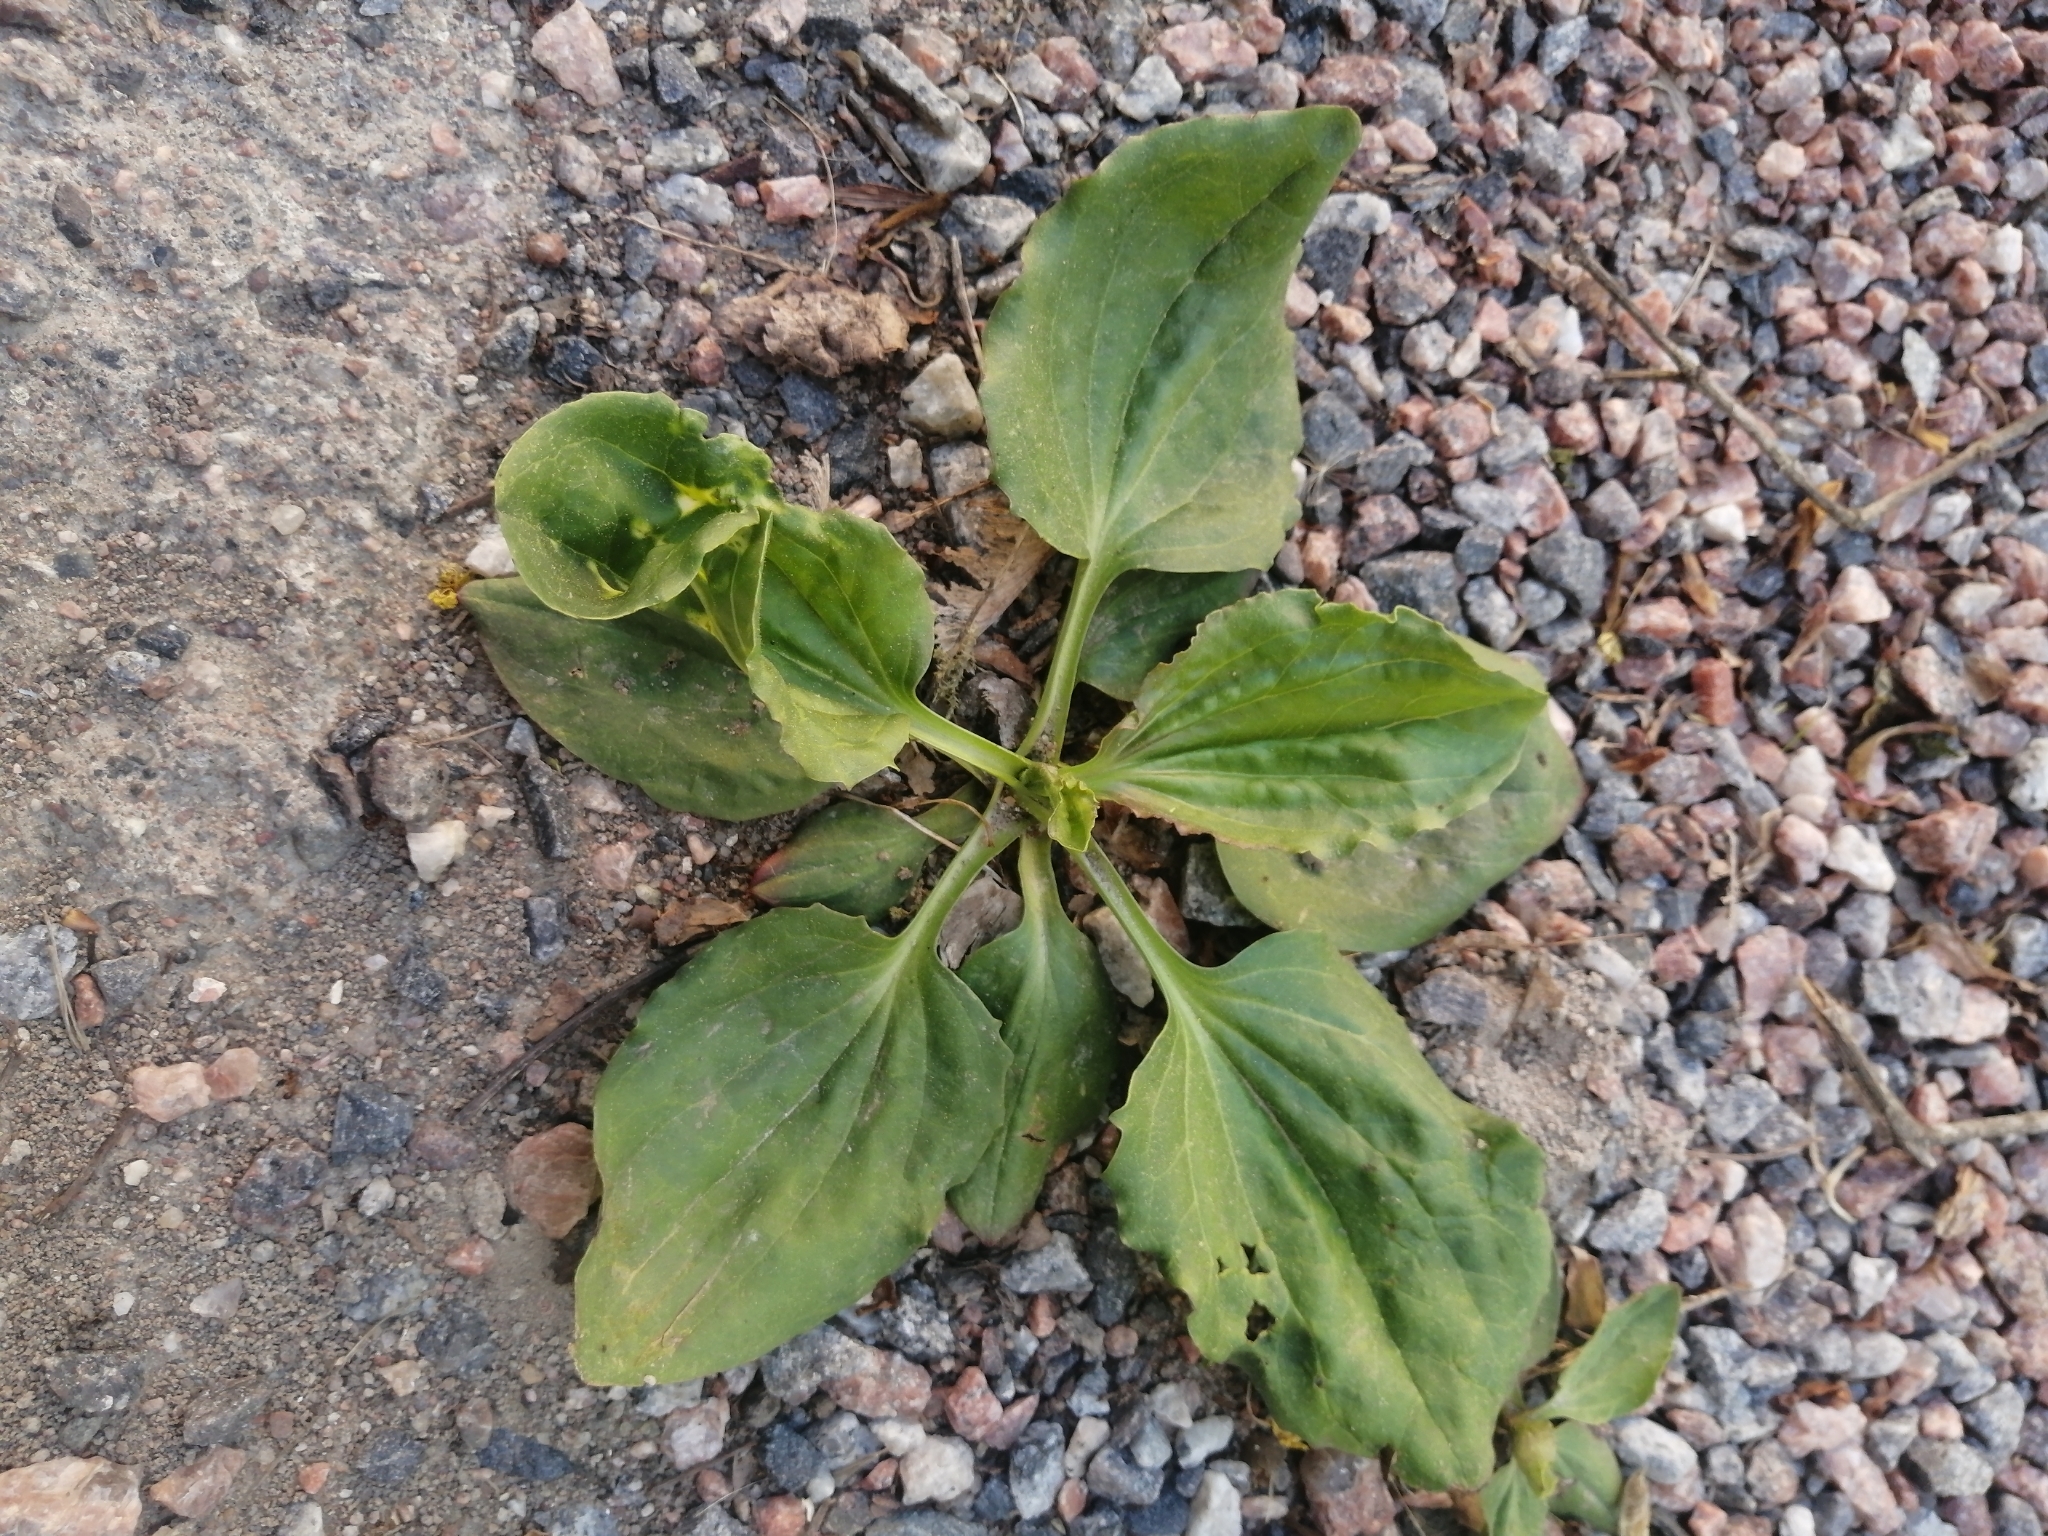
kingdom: Plantae
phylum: Tracheophyta
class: Magnoliopsida
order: Lamiales
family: Plantaginaceae
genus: Plantago
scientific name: Plantago major
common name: Common plantain
